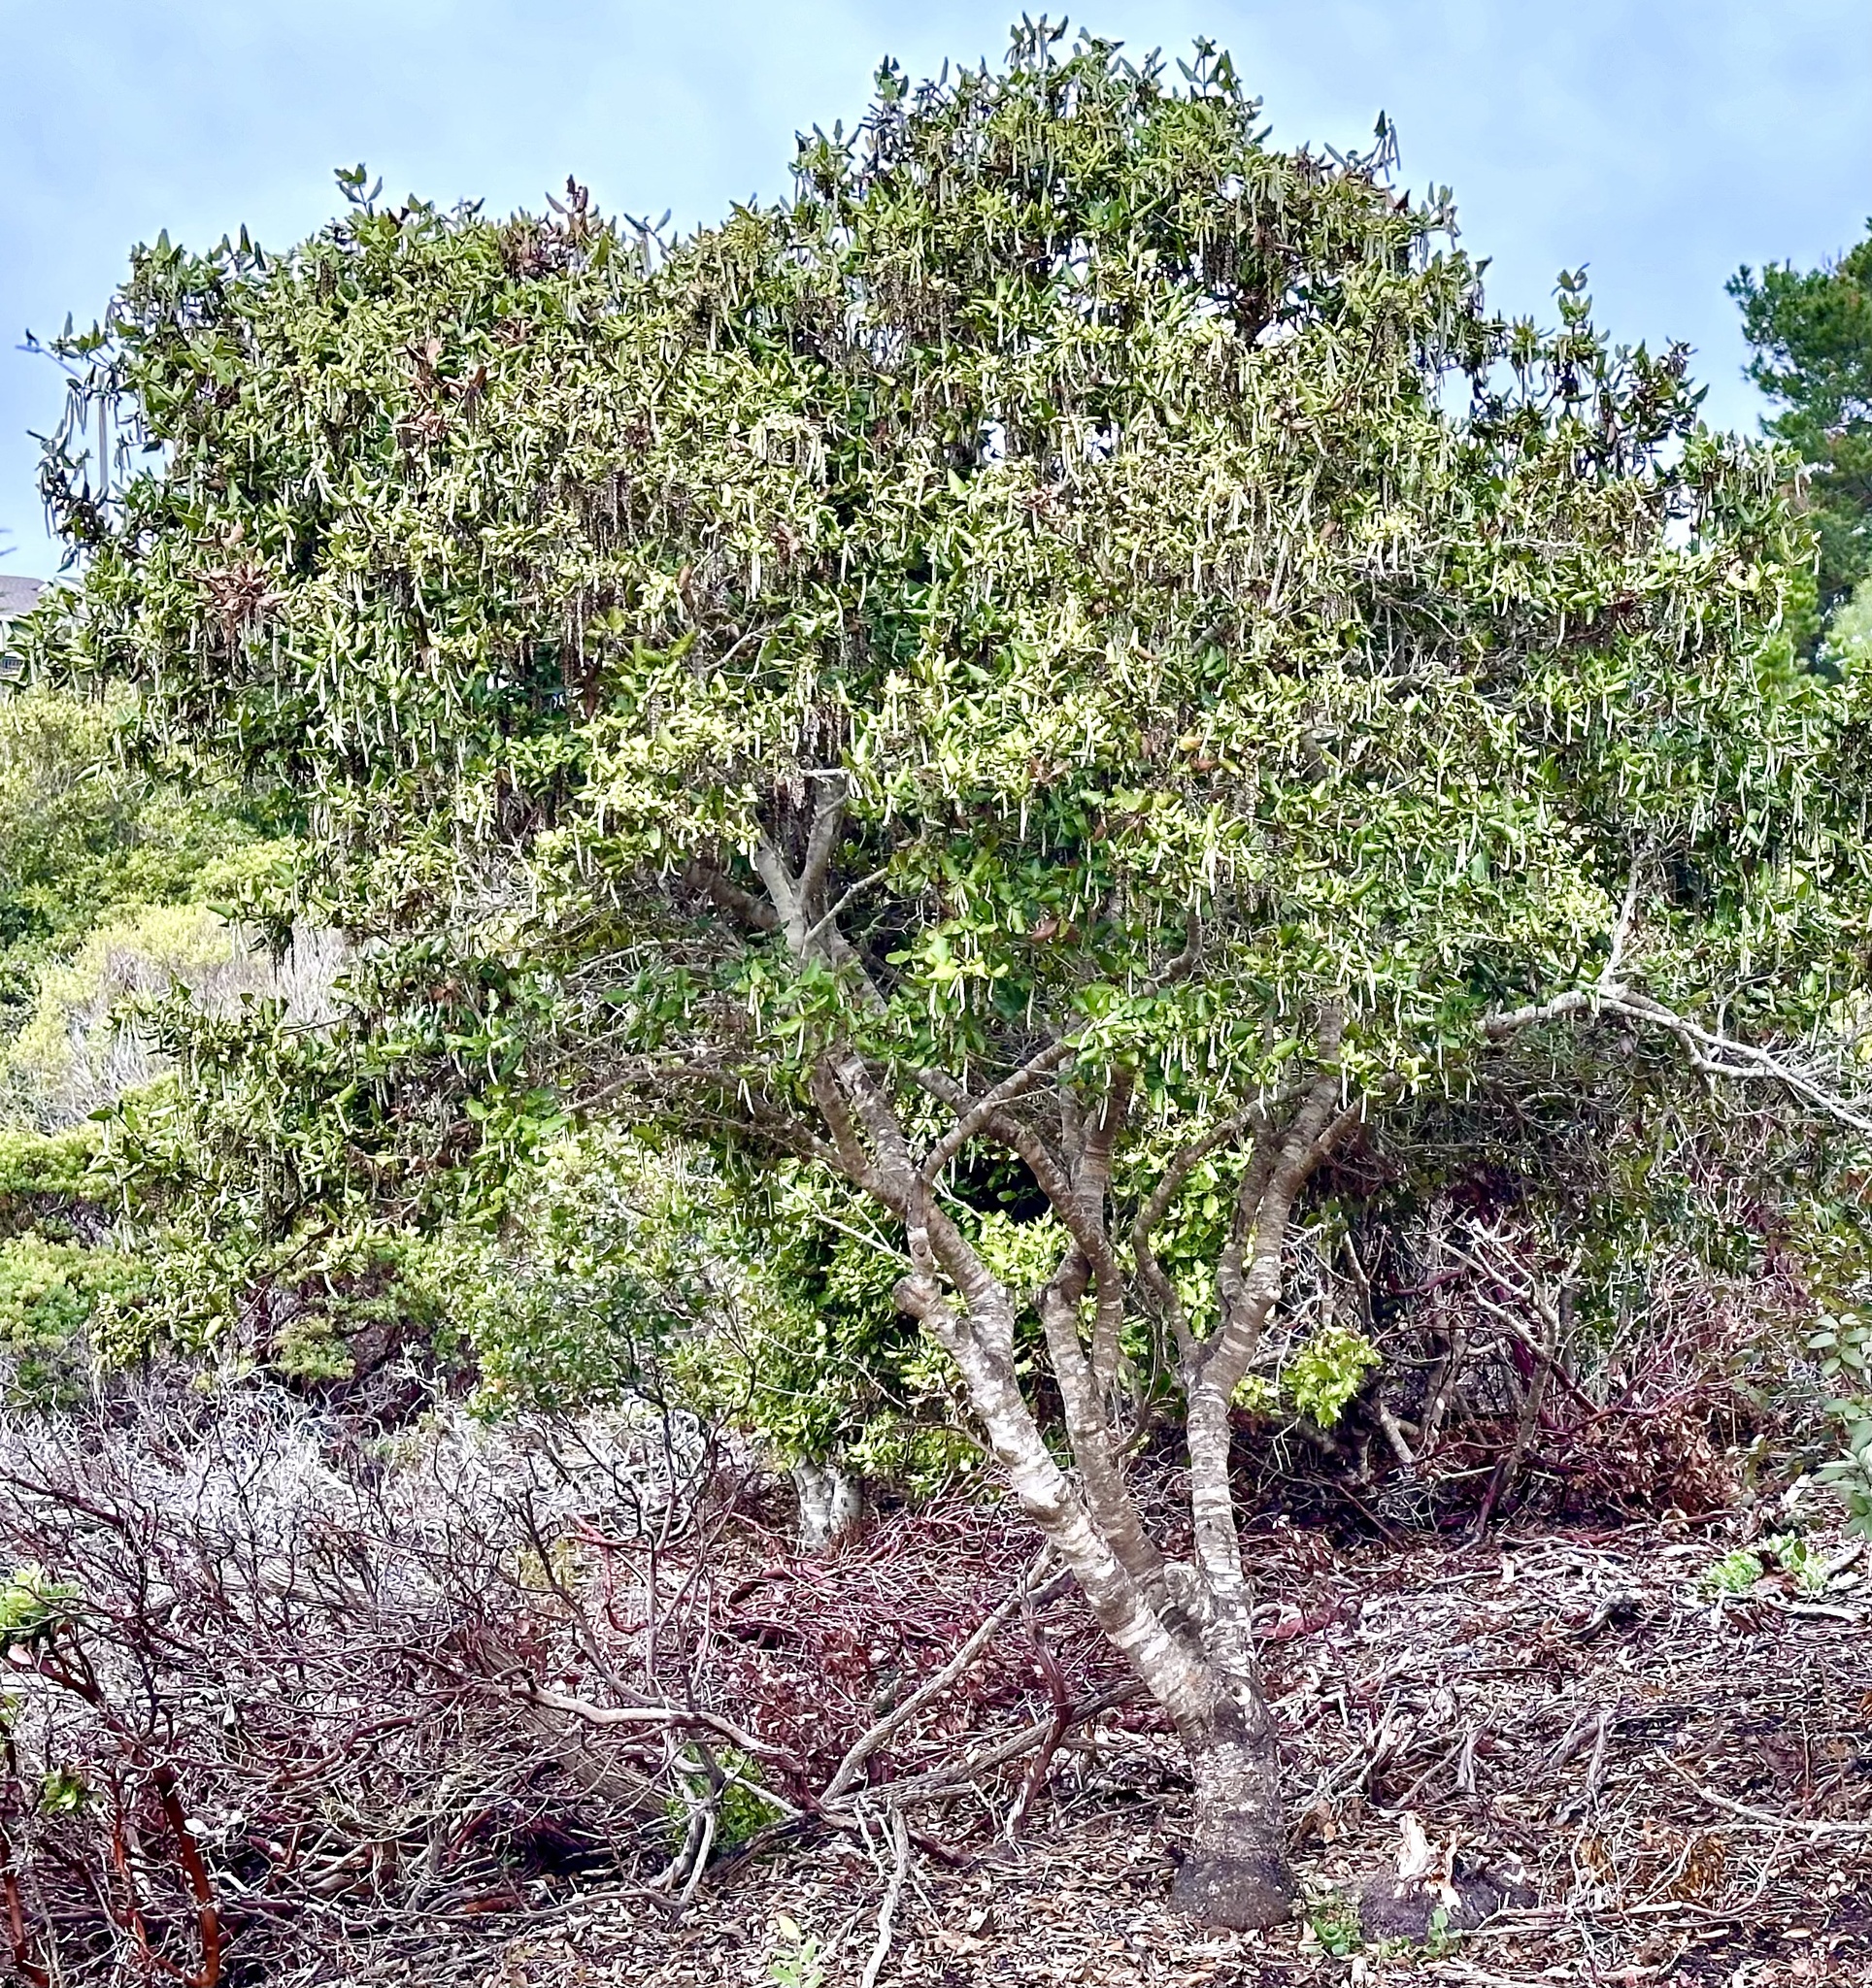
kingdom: Plantae
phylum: Tracheophyta
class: Magnoliopsida
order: Garryales
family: Garryaceae
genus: Garrya
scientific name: Garrya elliptica
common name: Silk-tassel
